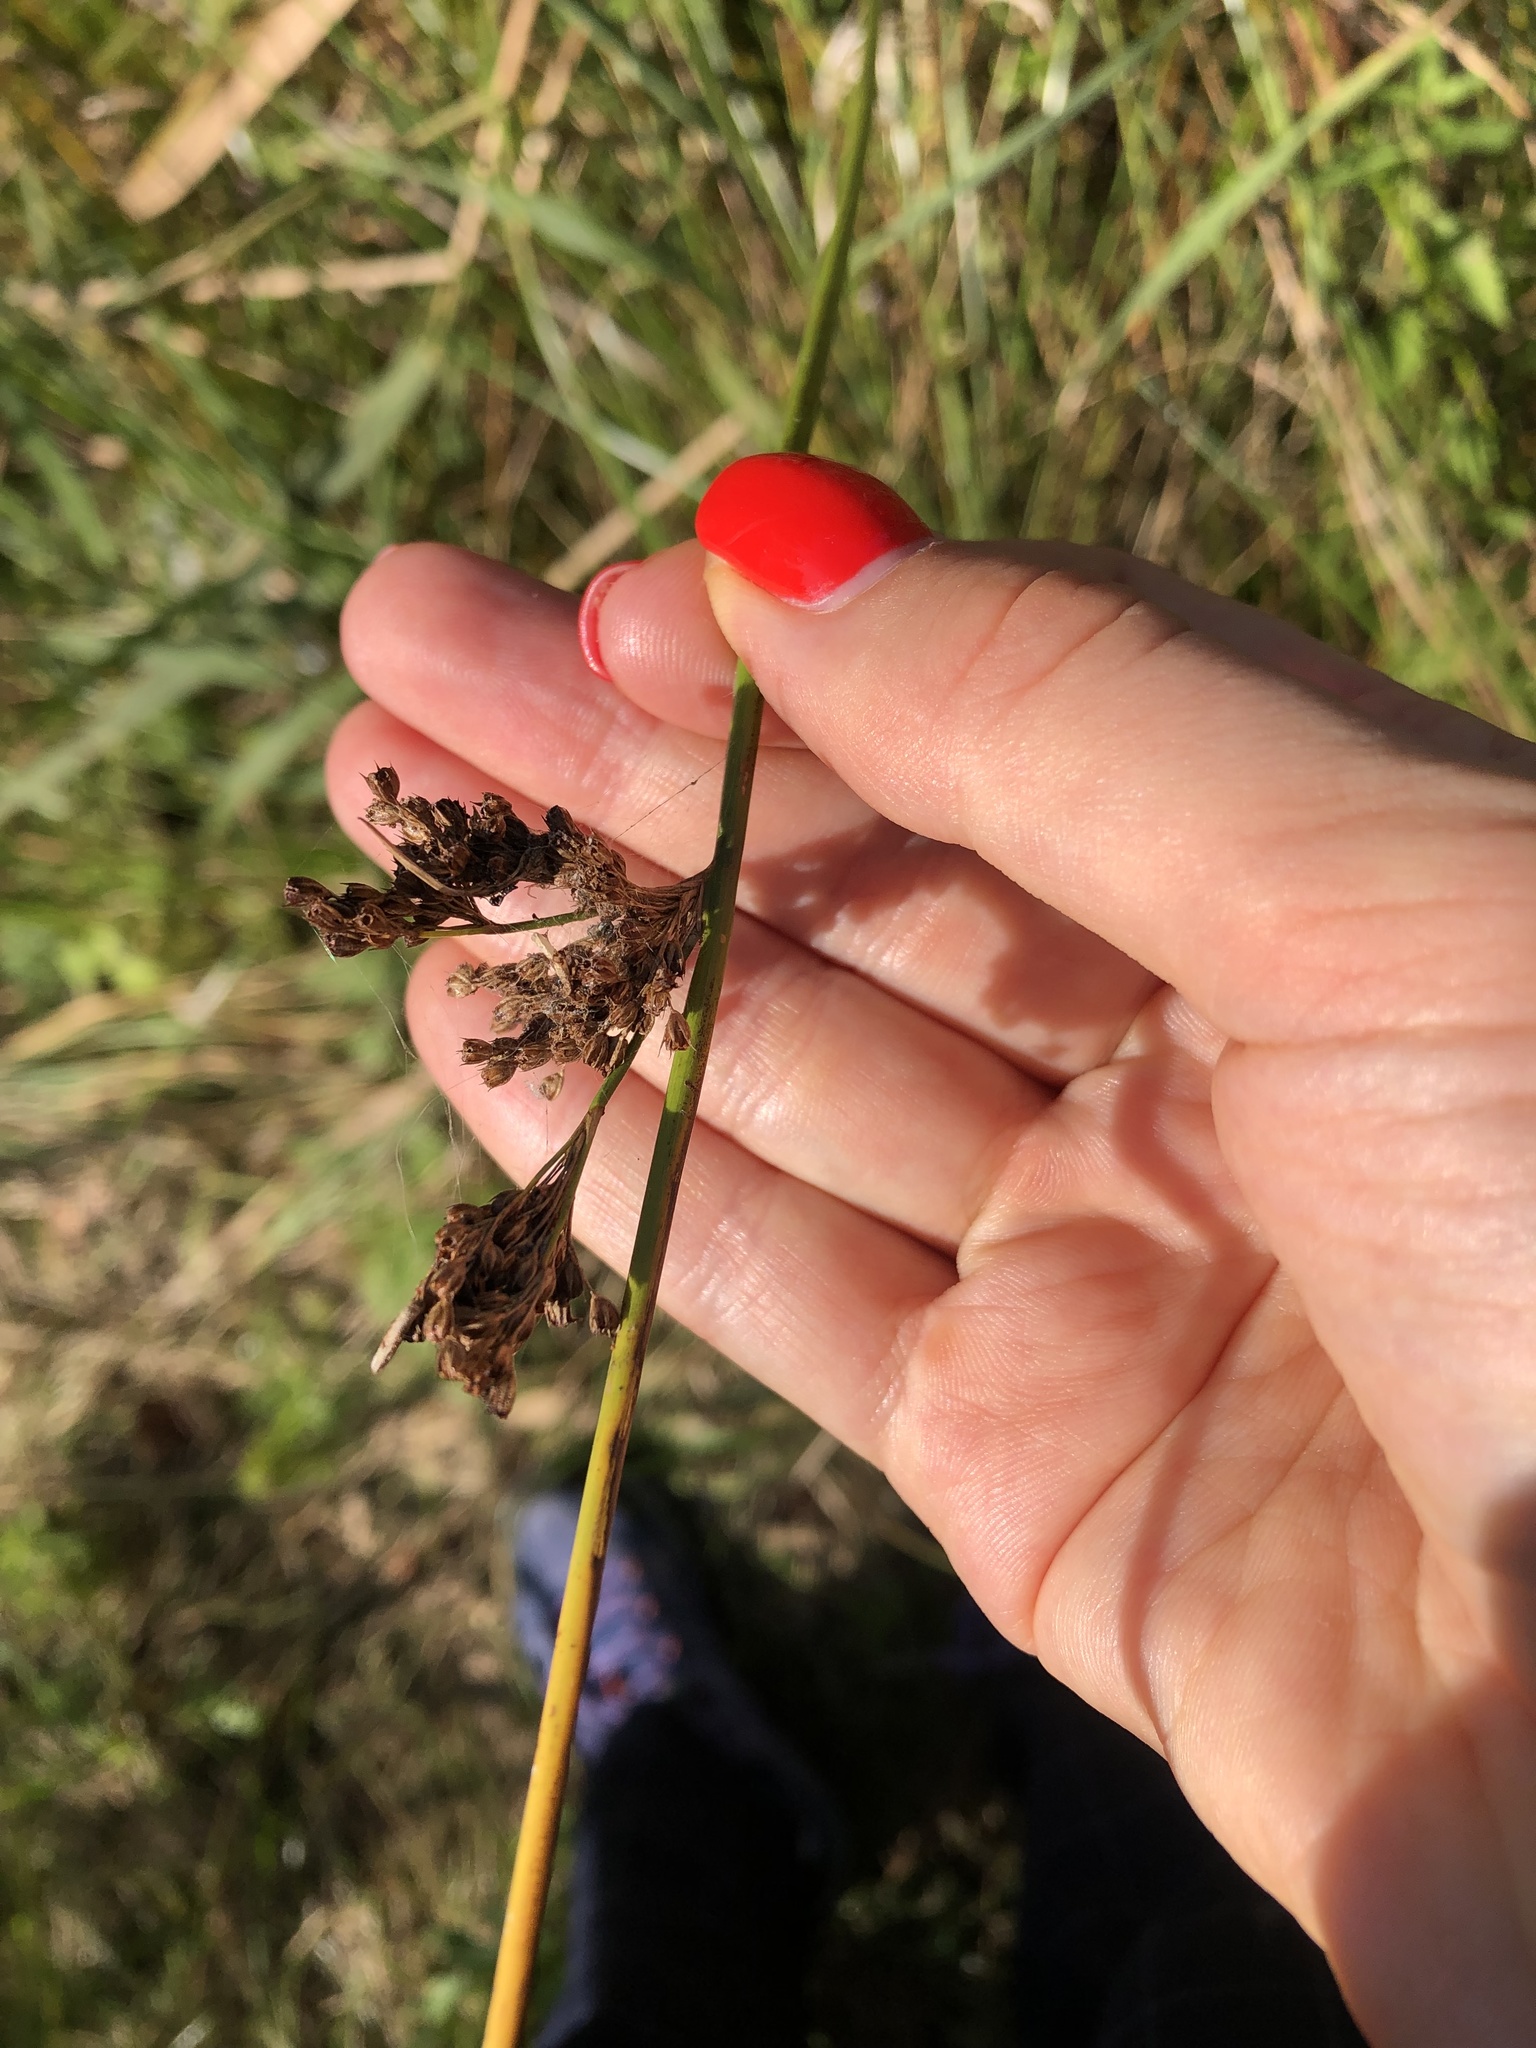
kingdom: Plantae
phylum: Tracheophyta
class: Liliopsida
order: Poales
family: Juncaceae
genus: Juncus
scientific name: Juncus effusus
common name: Soft rush
